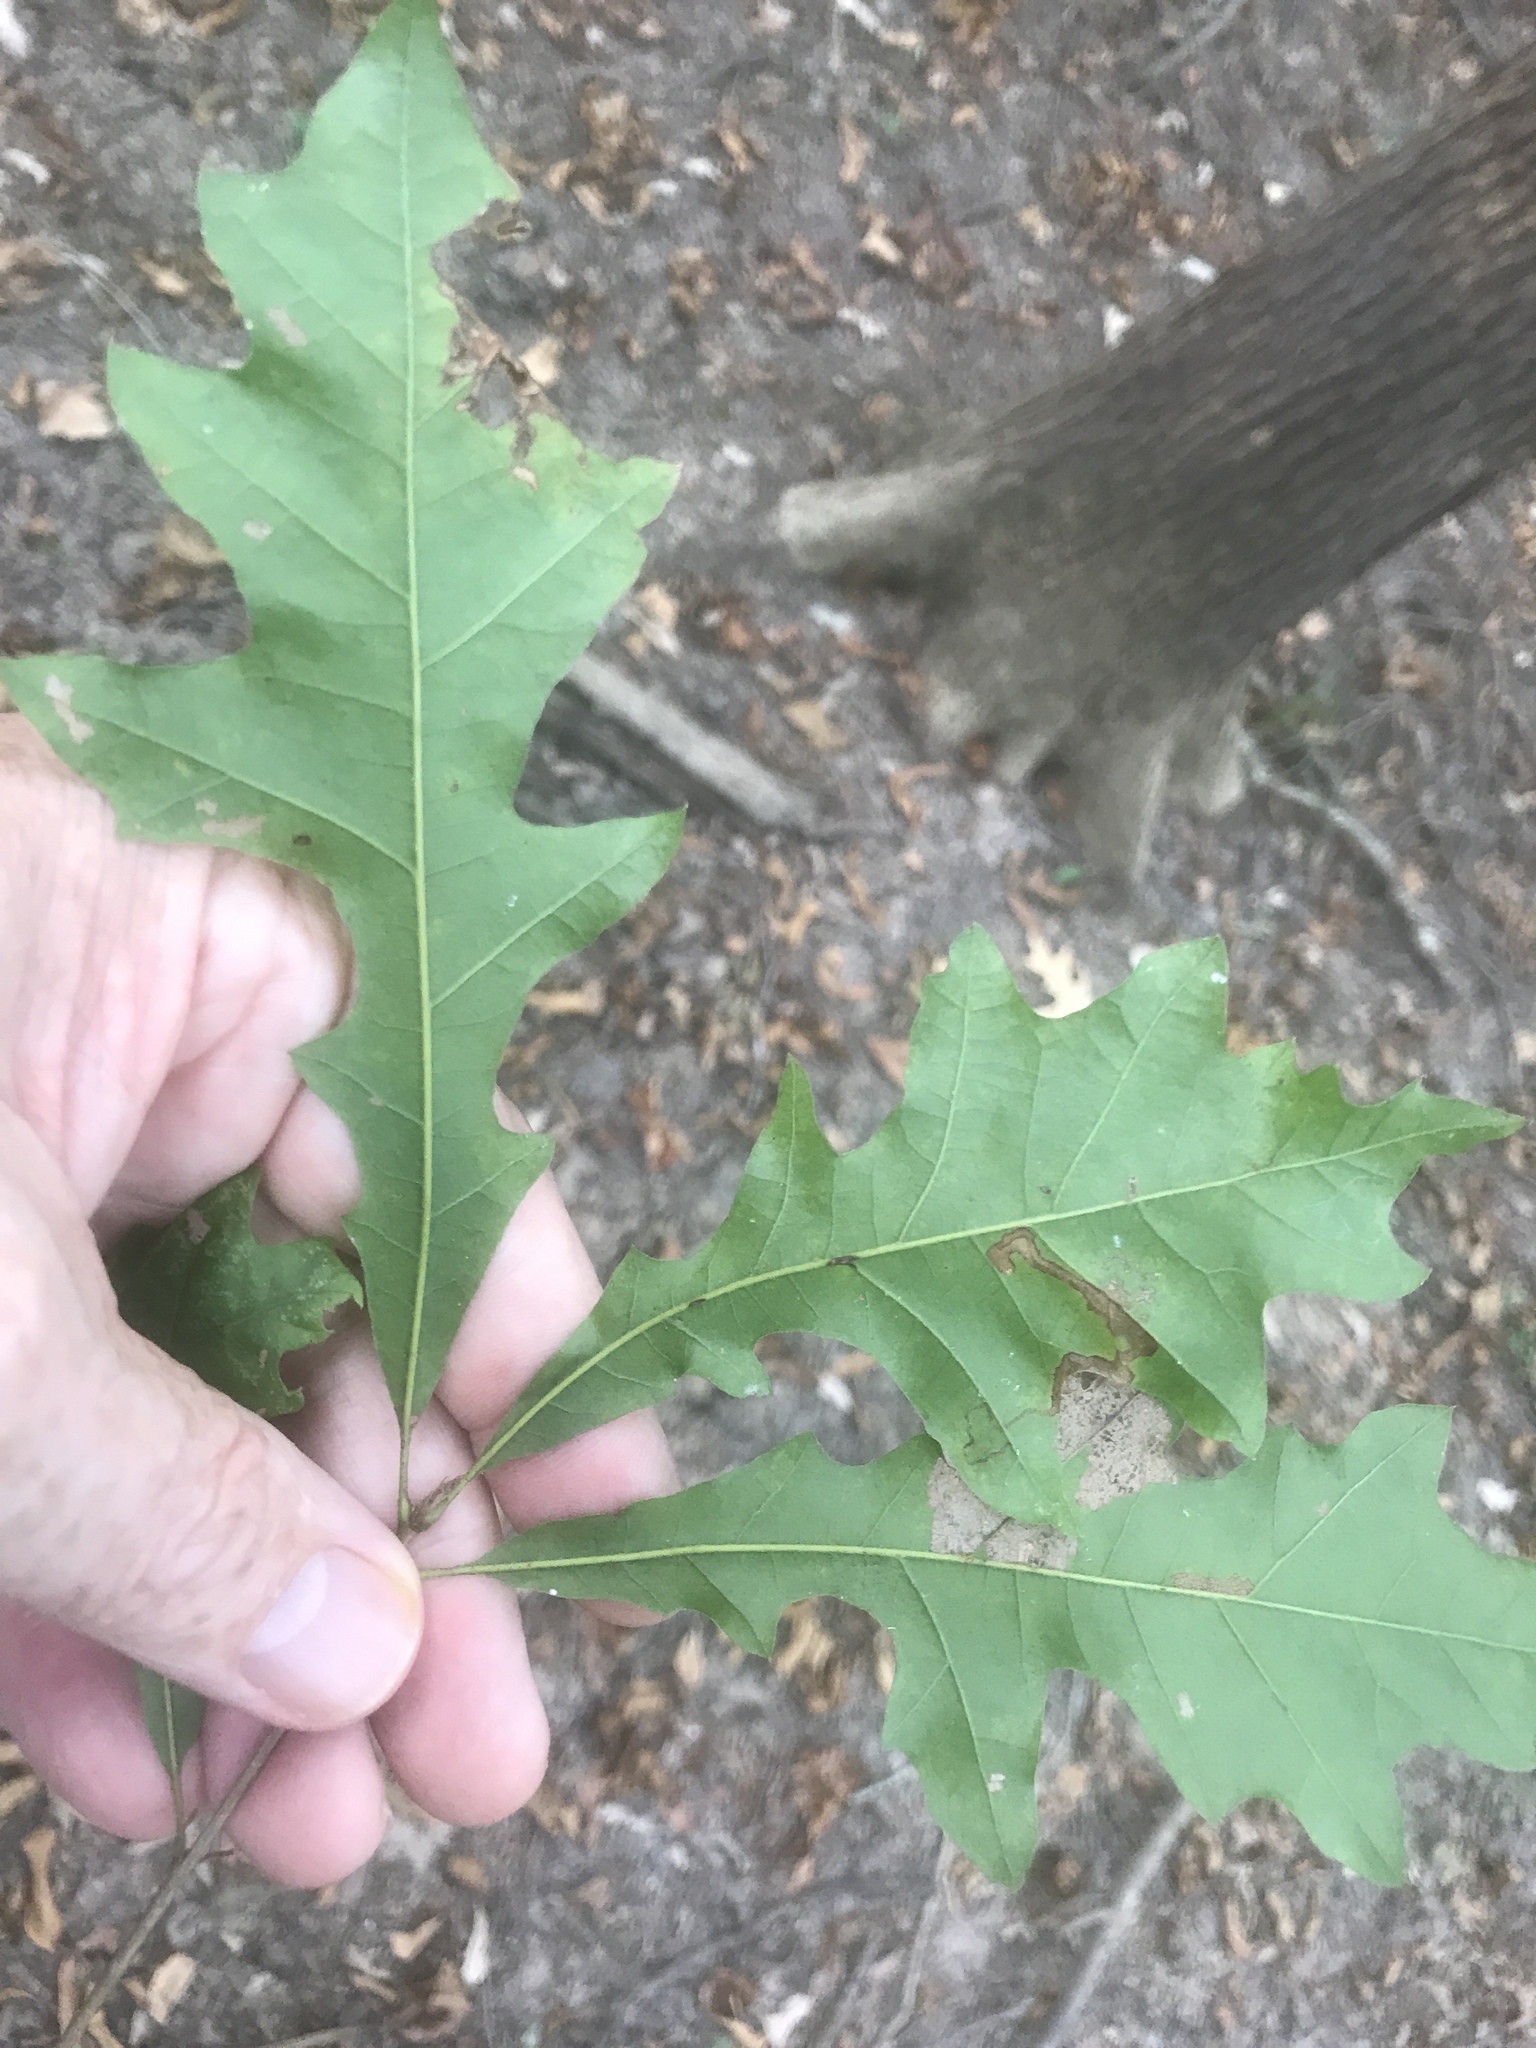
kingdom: Plantae
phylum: Tracheophyta
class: Magnoliopsida
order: Fagales
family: Fagaceae
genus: Quercus
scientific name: Quercus lyrata
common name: Overcup oak
